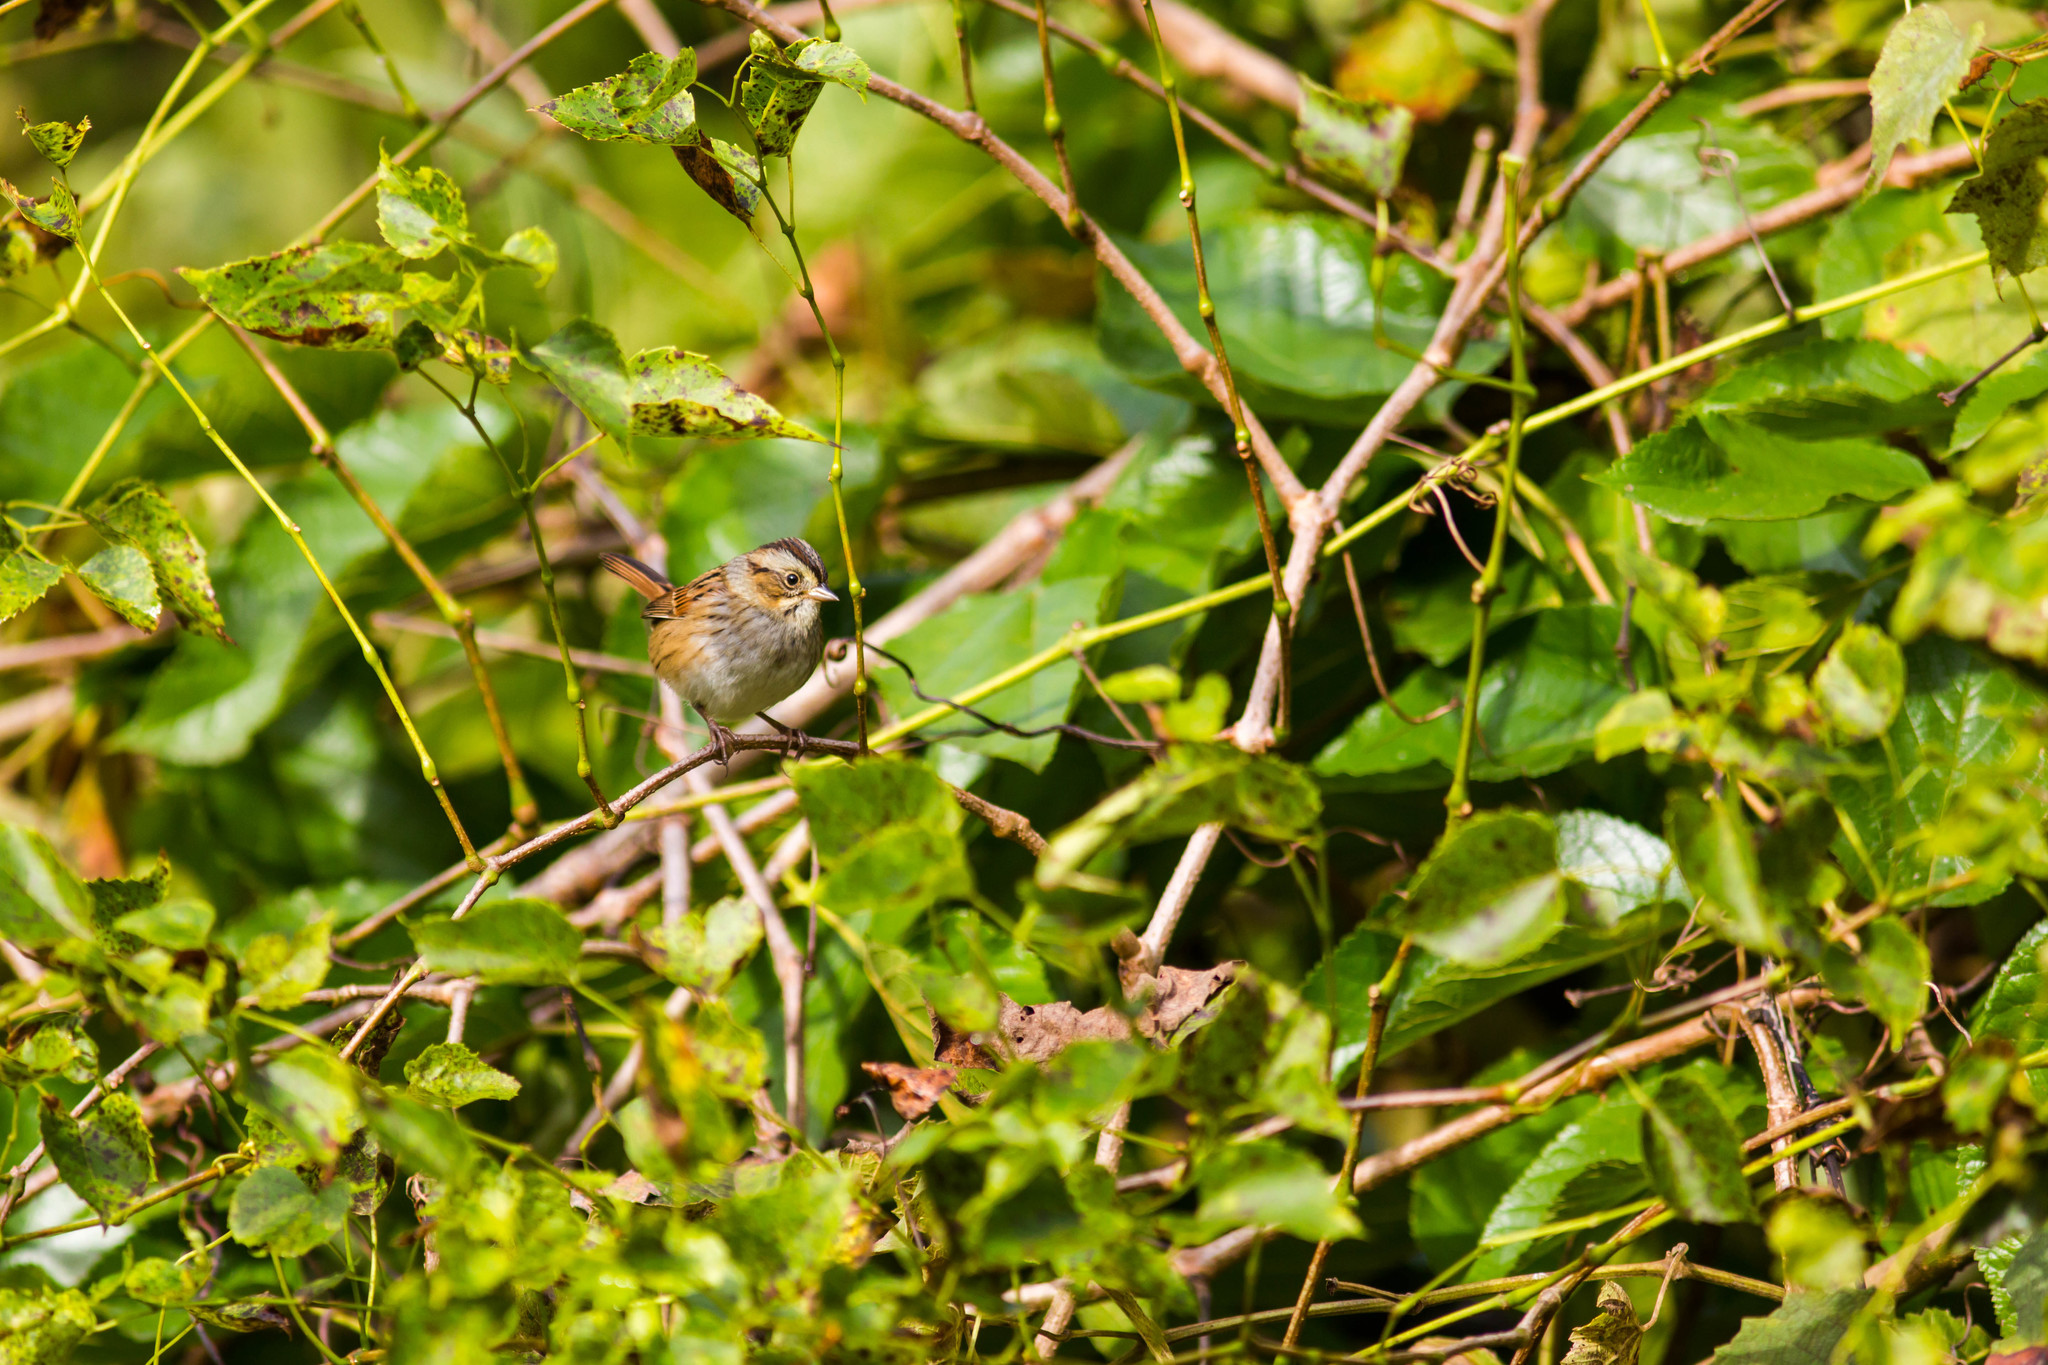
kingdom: Animalia
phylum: Chordata
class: Aves
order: Passeriformes
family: Passerellidae
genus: Melospiza
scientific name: Melospiza georgiana
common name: Swamp sparrow
